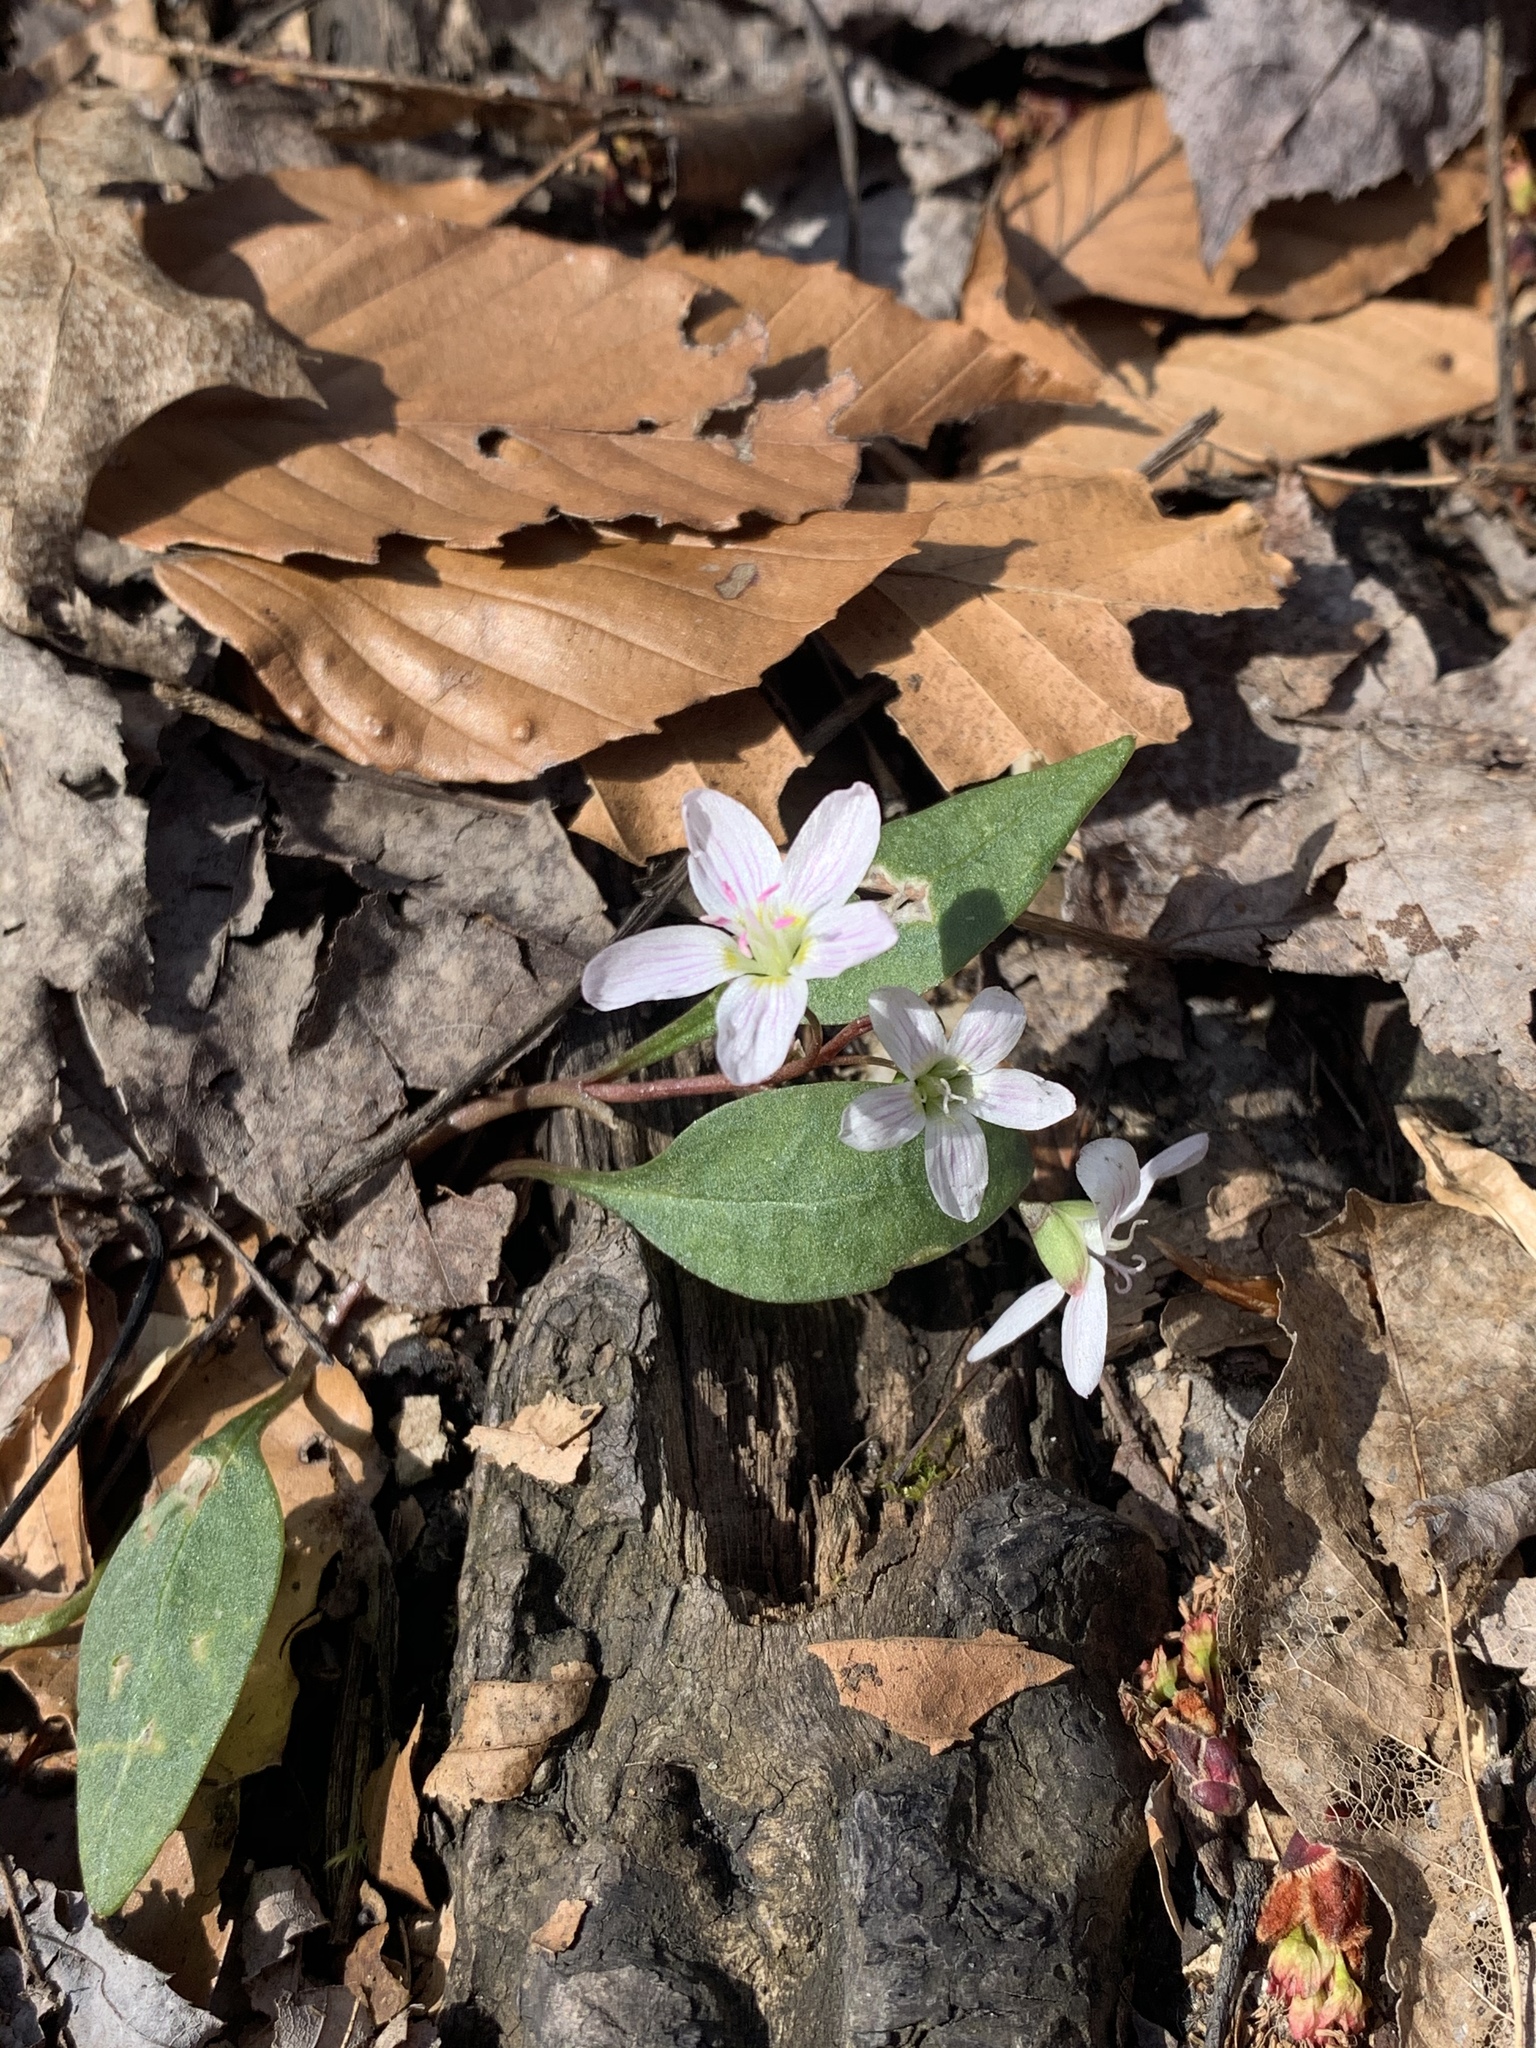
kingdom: Plantae
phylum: Tracheophyta
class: Magnoliopsida
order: Caryophyllales
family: Montiaceae
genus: Claytonia
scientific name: Claytonia caroliniana
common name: Carolina spring beauty
